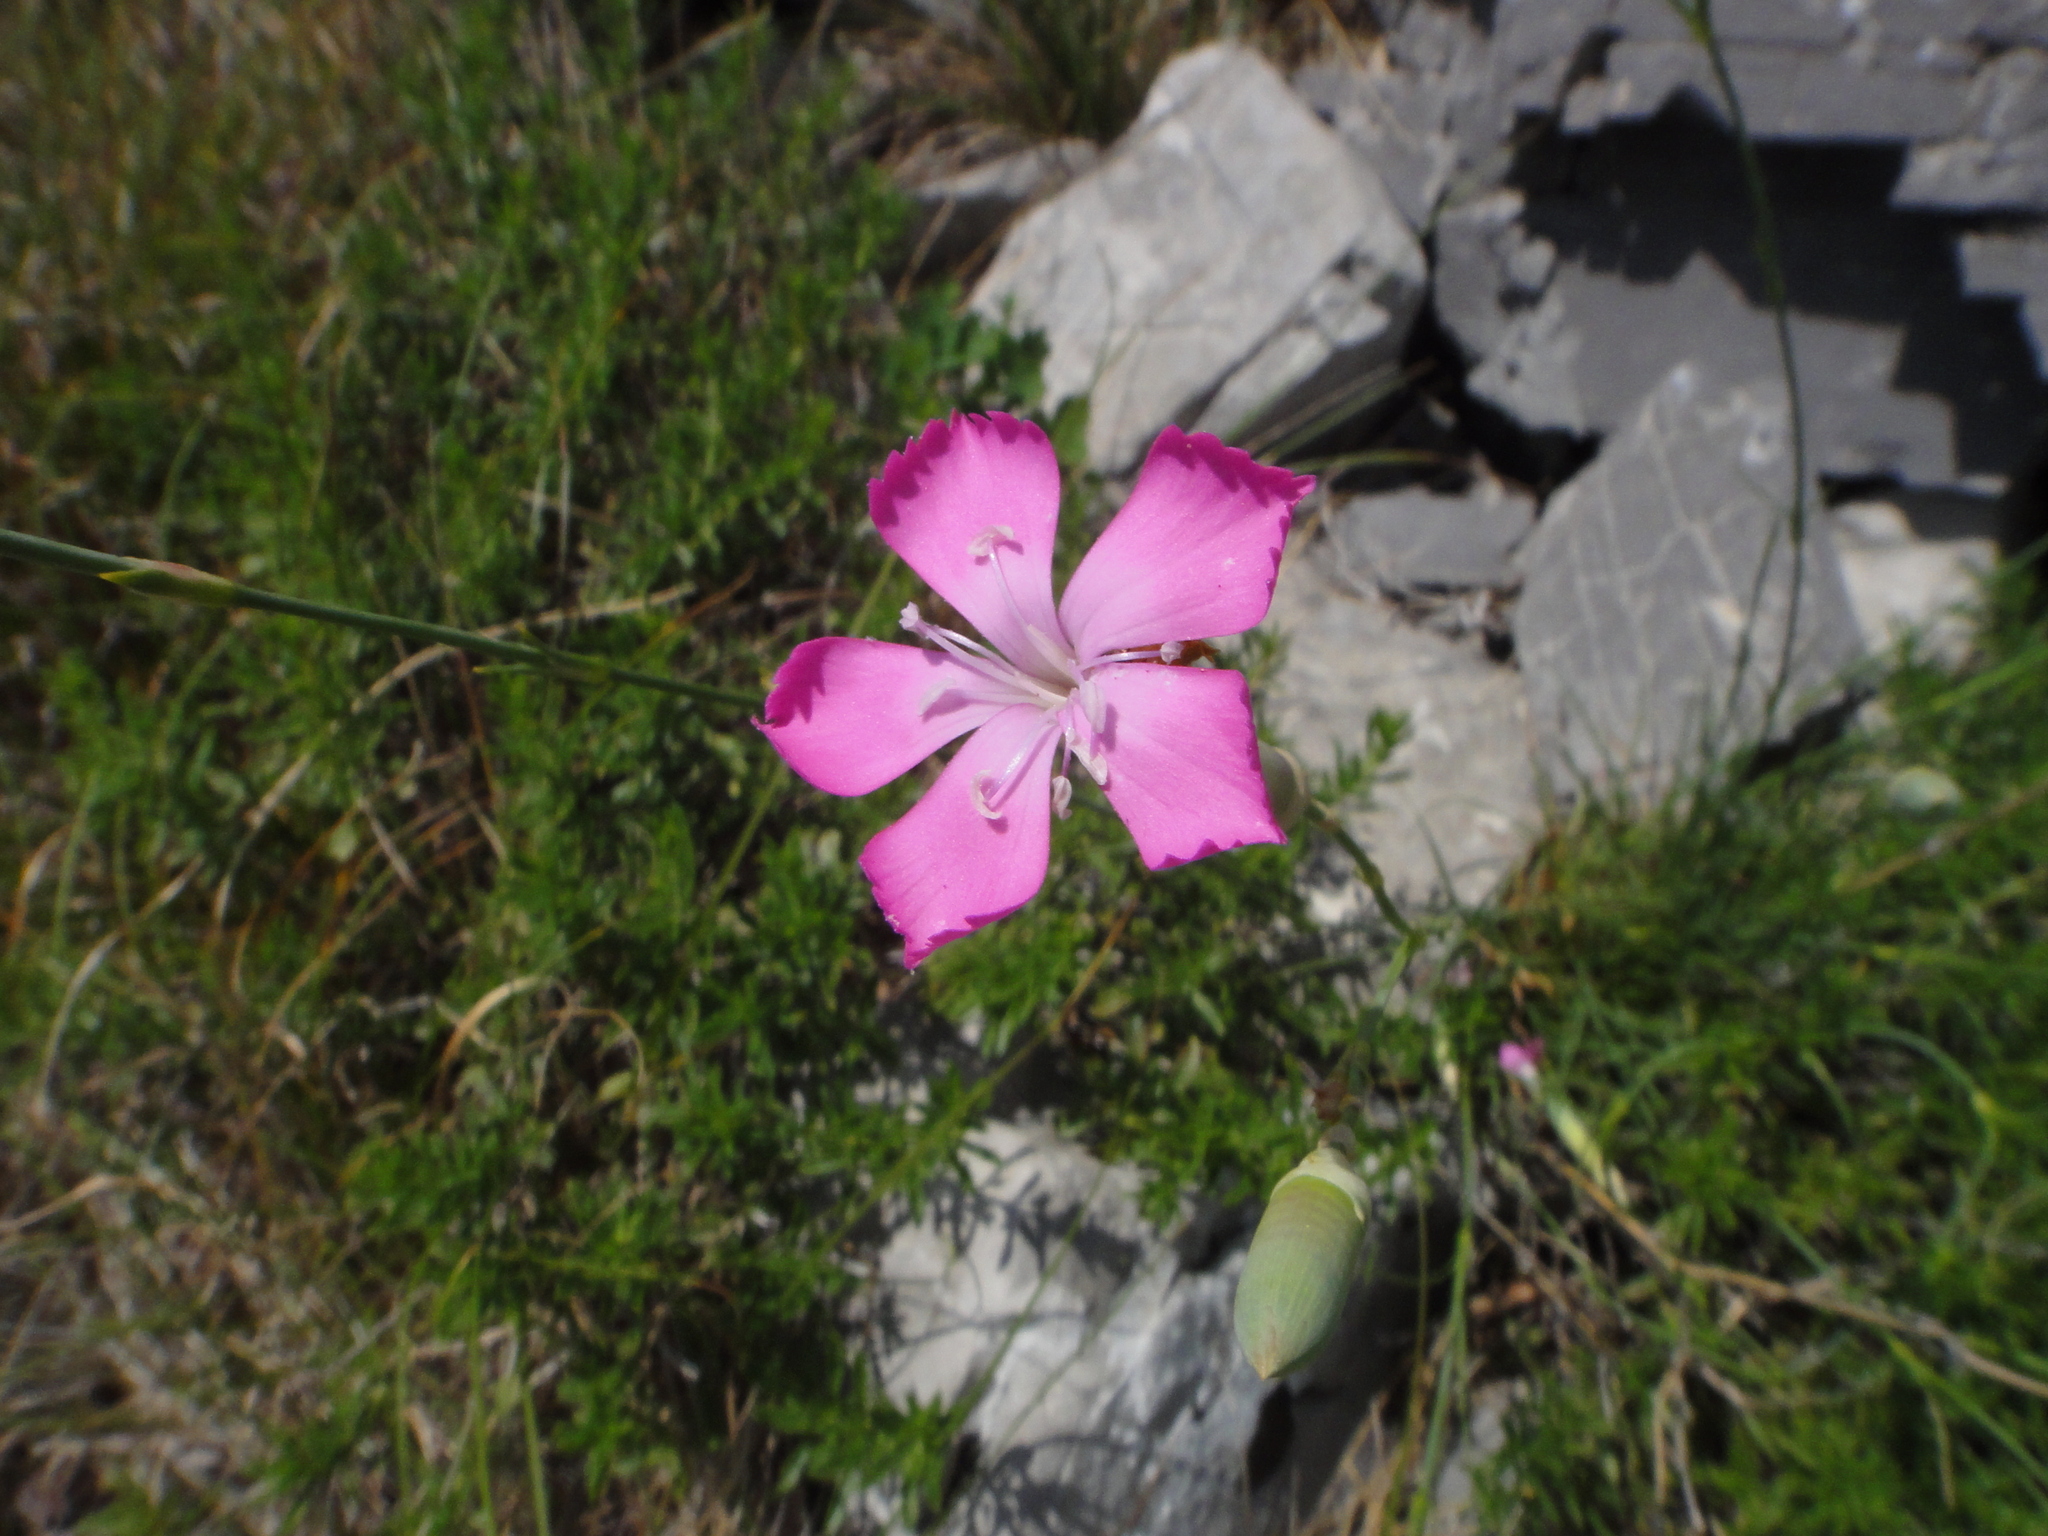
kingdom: Plantae
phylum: Tracheophyta
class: Magnoliopsida
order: Caryophyllales
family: Caryophyllaceae
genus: Dianthus
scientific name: Dianthus sylvestris
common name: Wood pink
